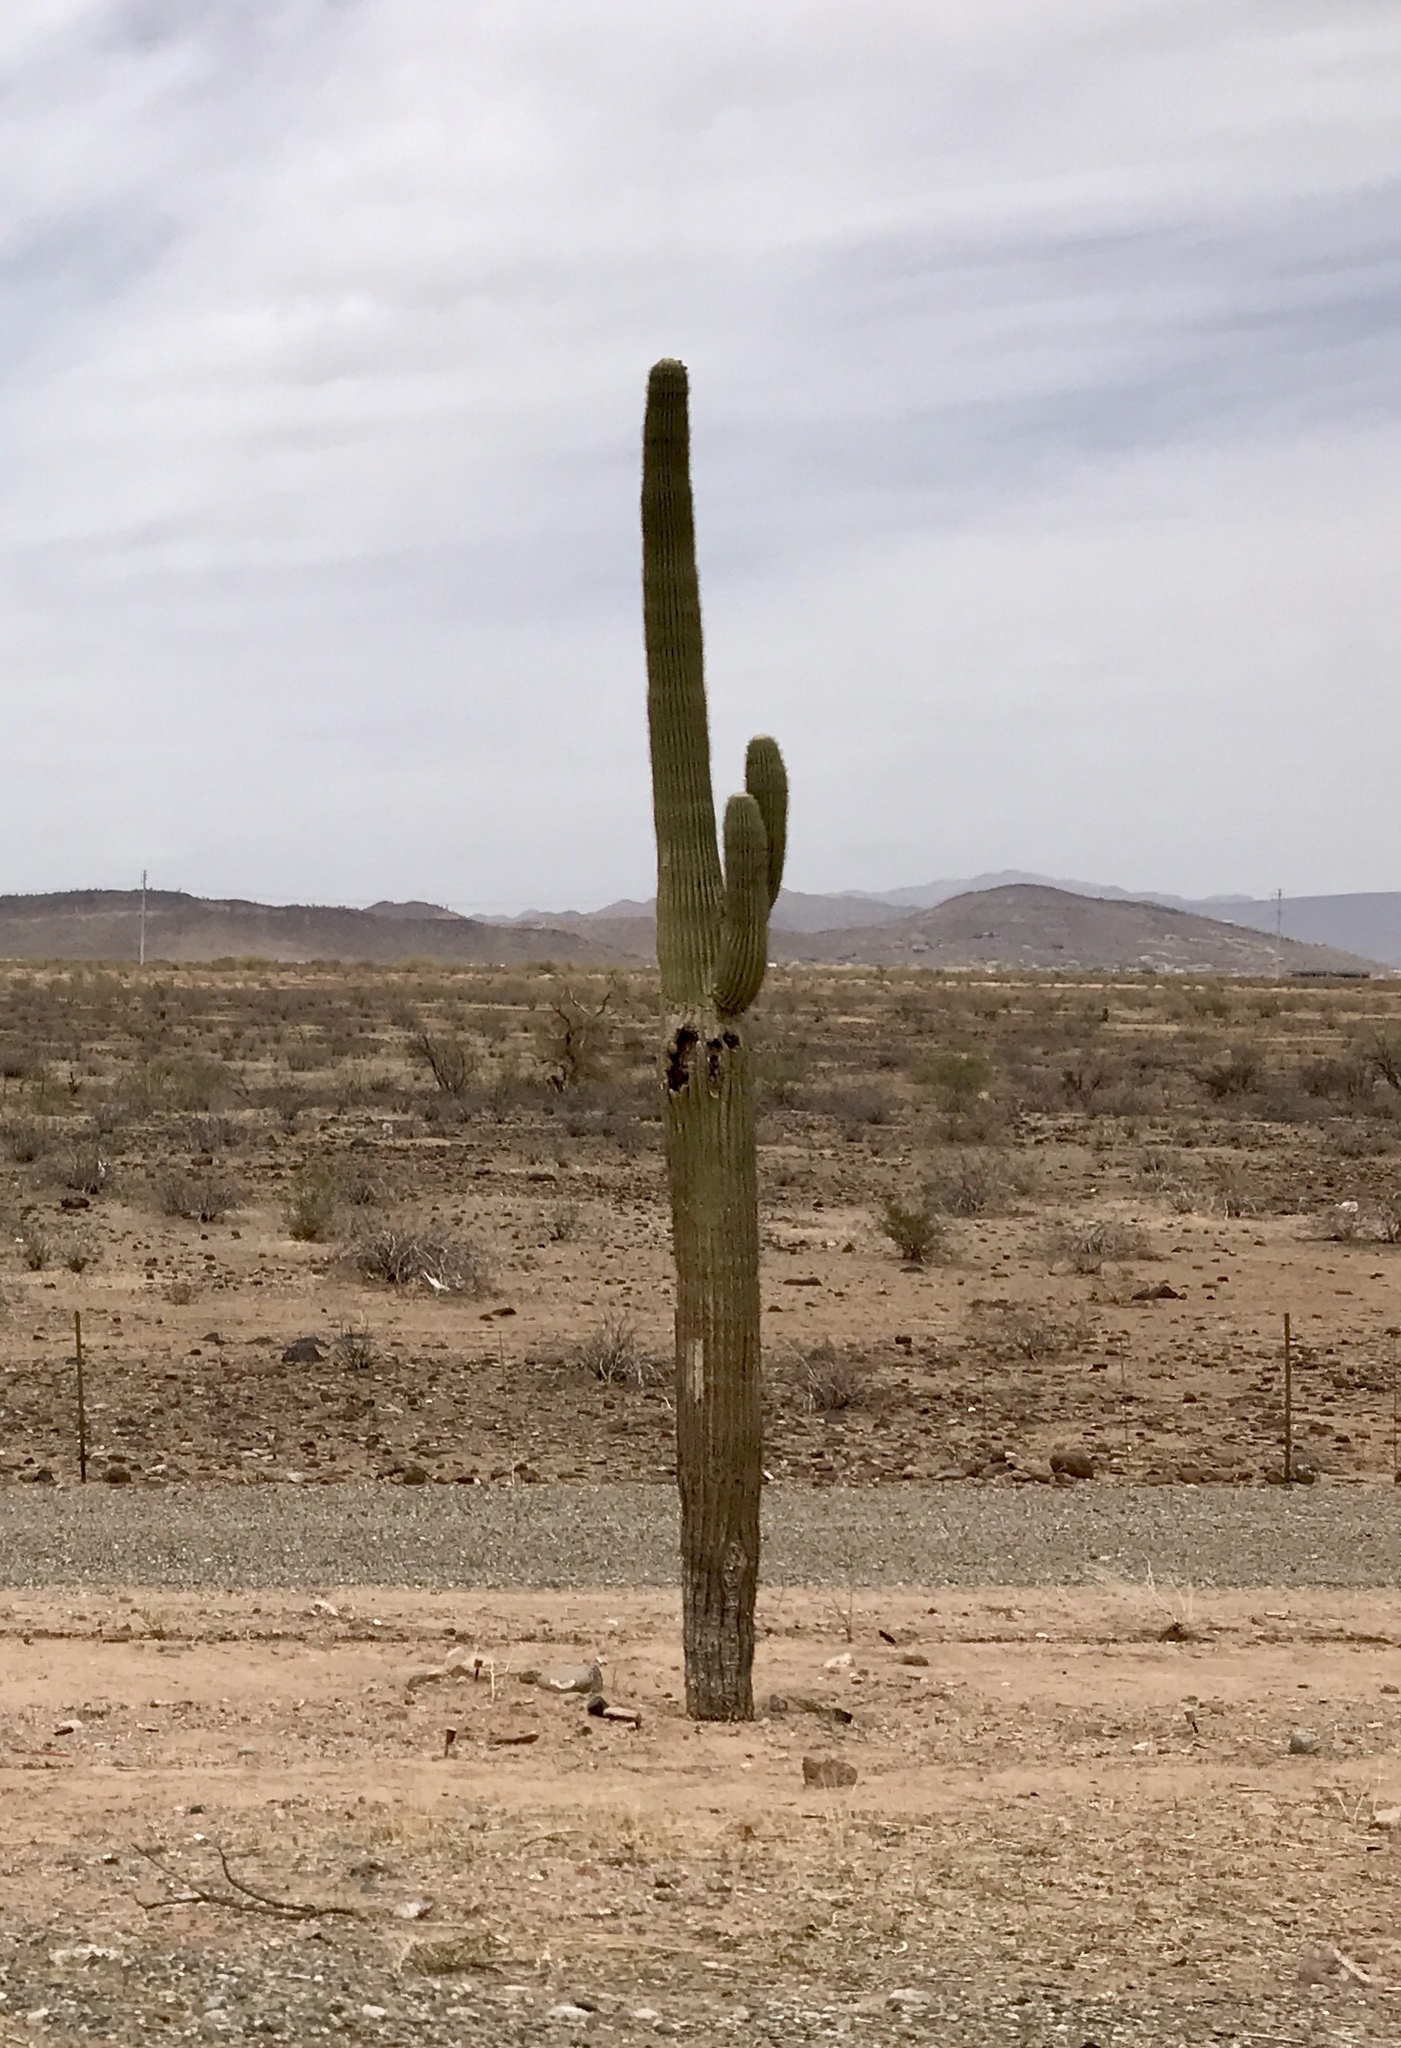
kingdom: Plantae
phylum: Tracheophyta
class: Magnoliopsida
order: Caryophyllales
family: Cactaceae
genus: Carnegiea
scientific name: Carnegiea gigantea
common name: Saguaro
